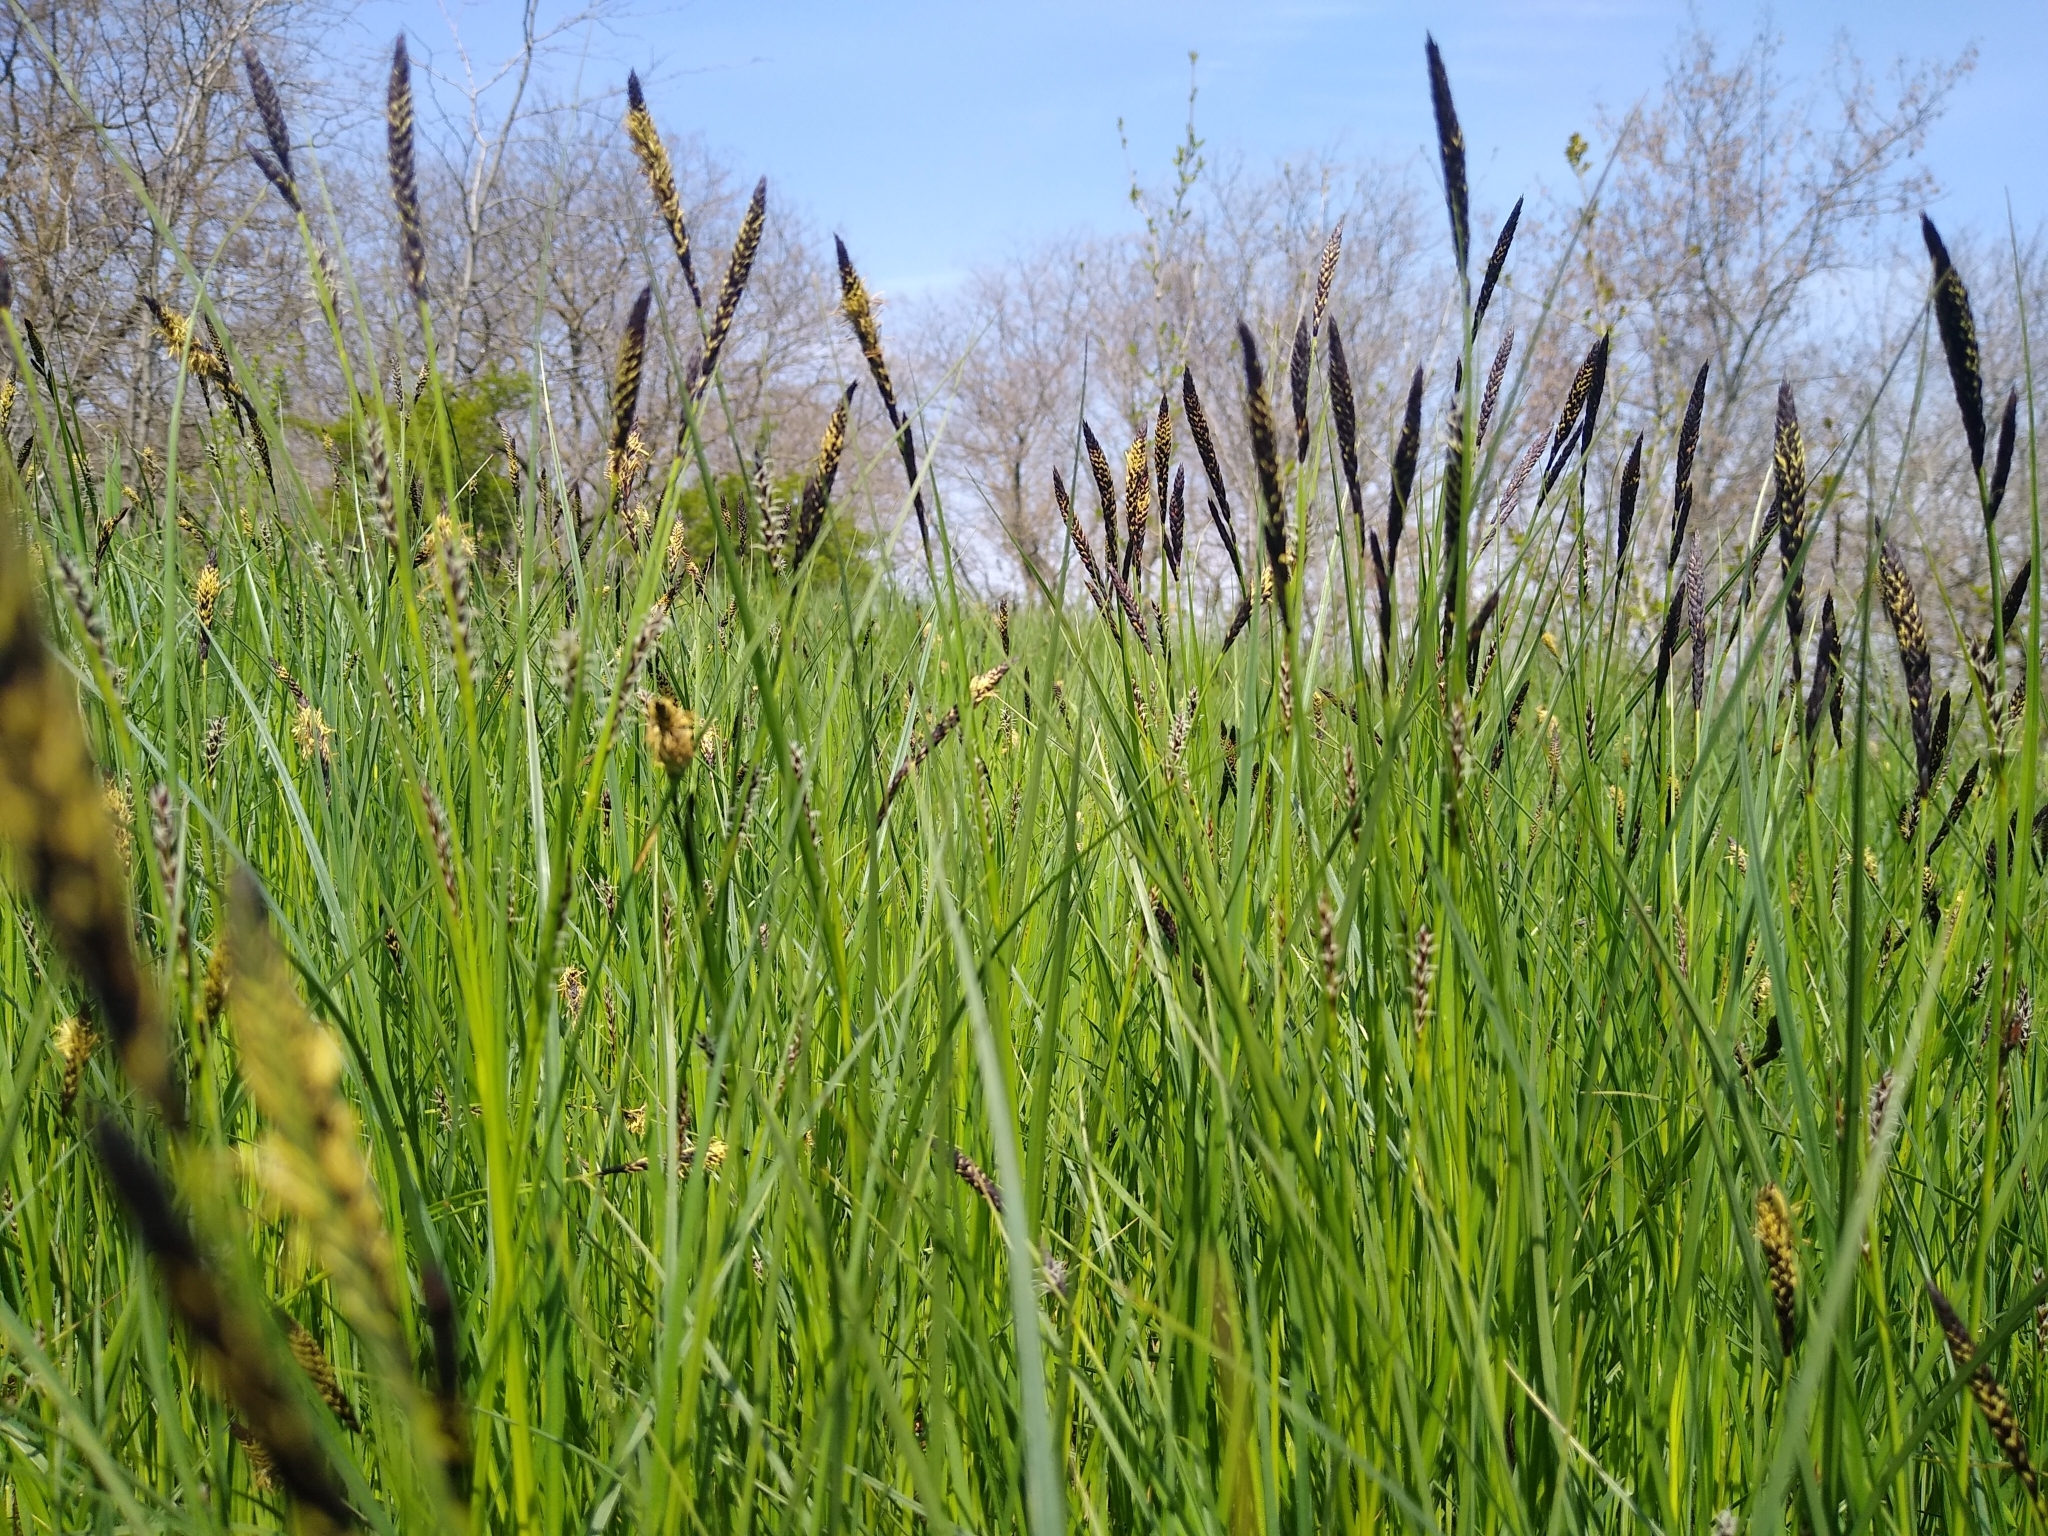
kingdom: Plantae
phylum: Tracheophyta
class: Liliopsida
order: Poales
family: Cyperaceae
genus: Carex
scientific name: Carex melanostachya
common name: Black-spiked sedge
